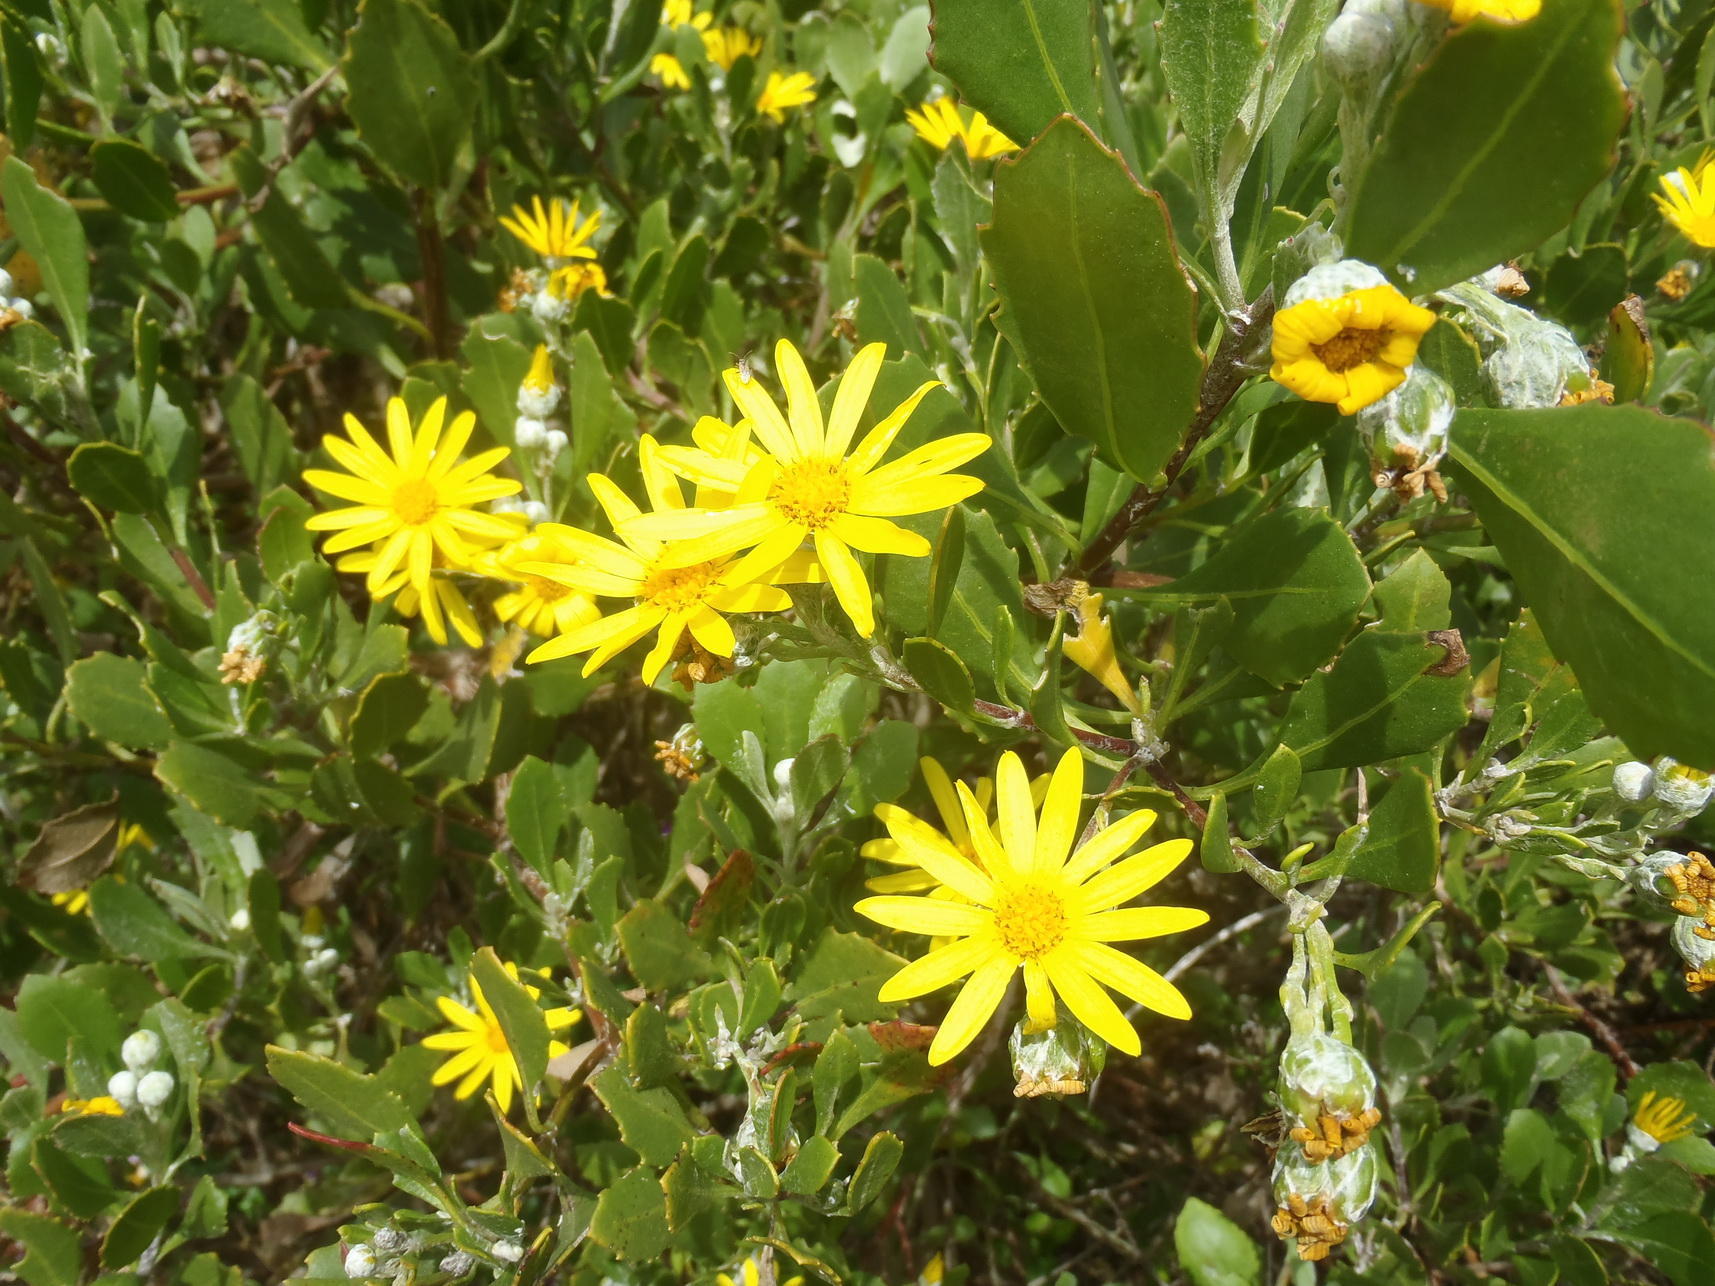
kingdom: Plantae
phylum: Tracheophyta
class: Magnoliopsida
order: Asterales
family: Asteraceae
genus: Osteospermum
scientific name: Osteospermum moniliferum
